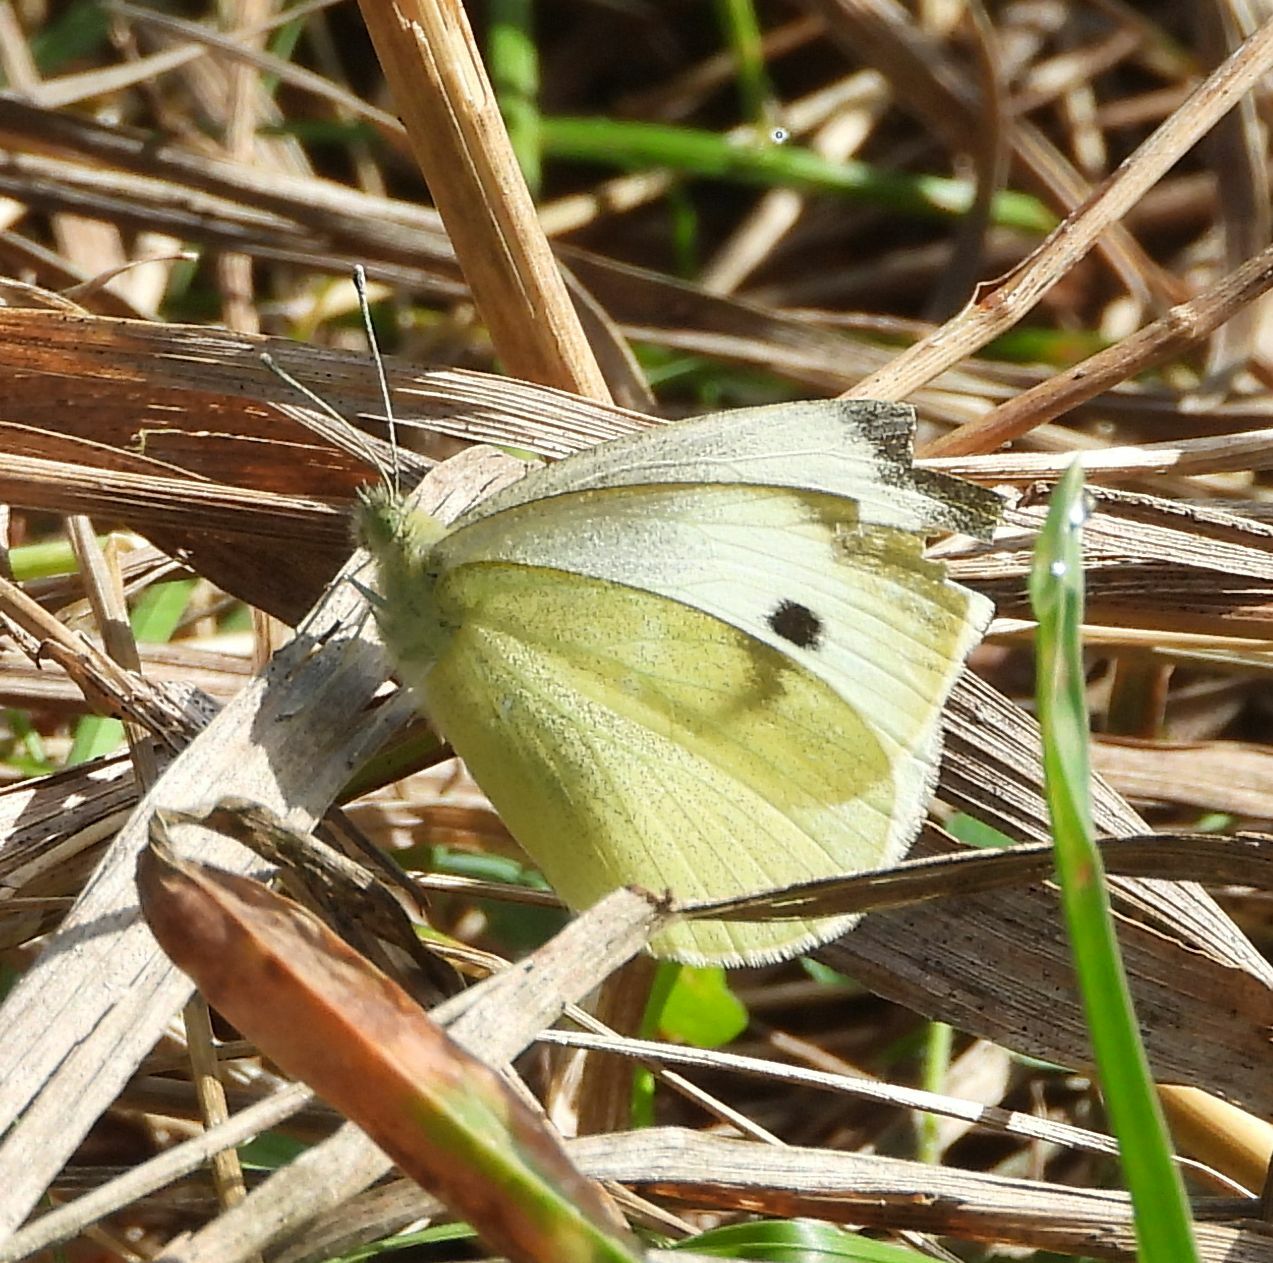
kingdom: Animalia
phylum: Arthropoda
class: Insecta
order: Lepidoptera
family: Pieridae
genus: Pieris
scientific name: Pieris rapae
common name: Small white
